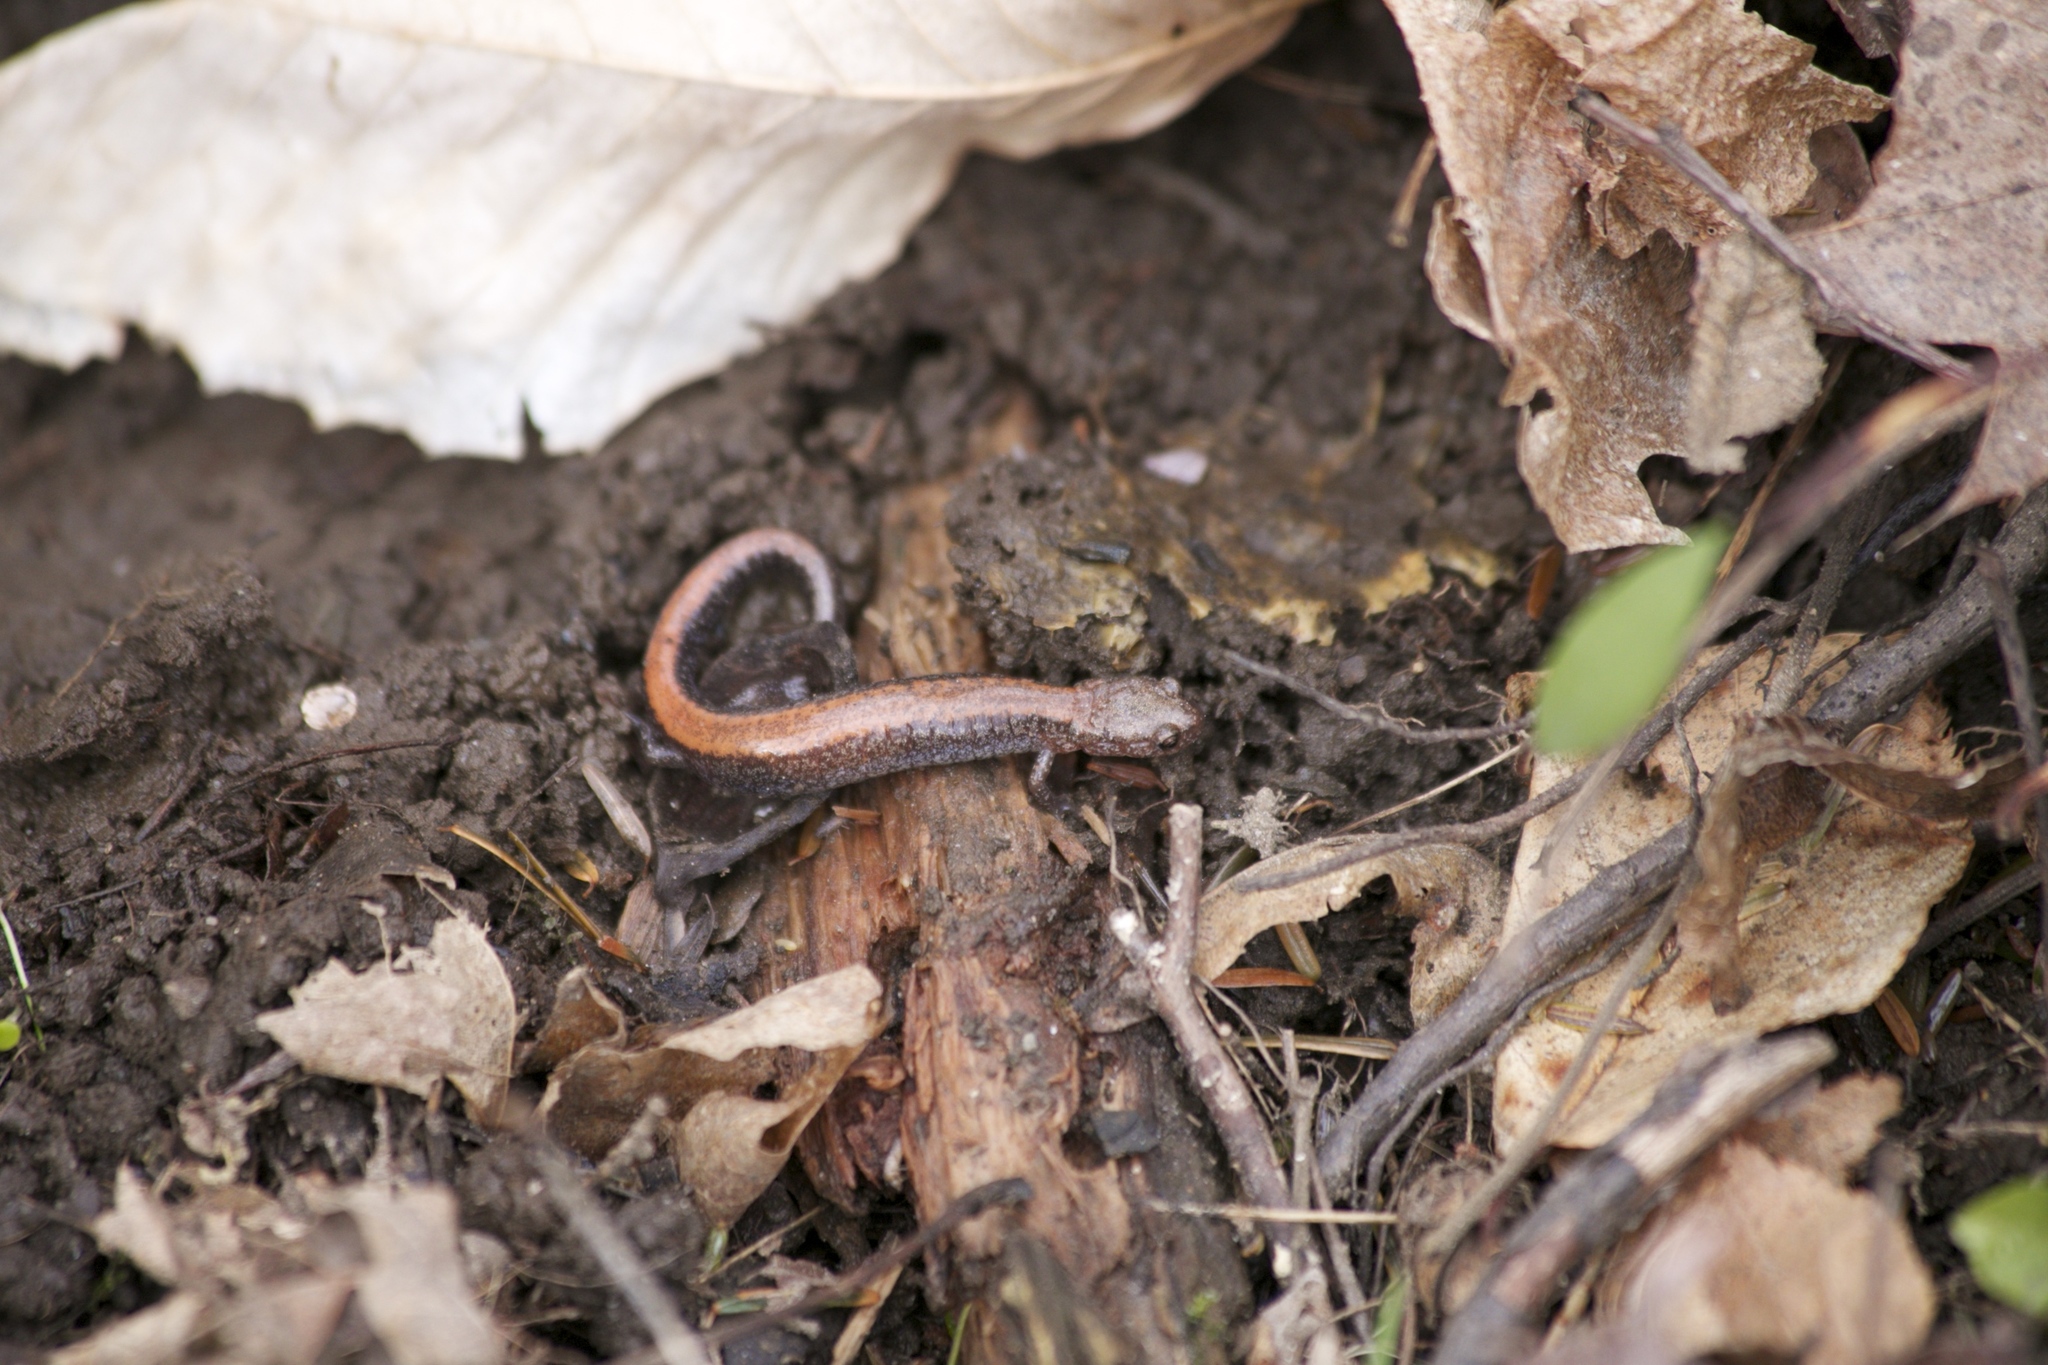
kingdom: Animalia
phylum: Chordata
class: Amphibia
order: Caudata
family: Plethodontidae
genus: Plethodon
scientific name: Plethodon cinereus
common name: Redback salamander
